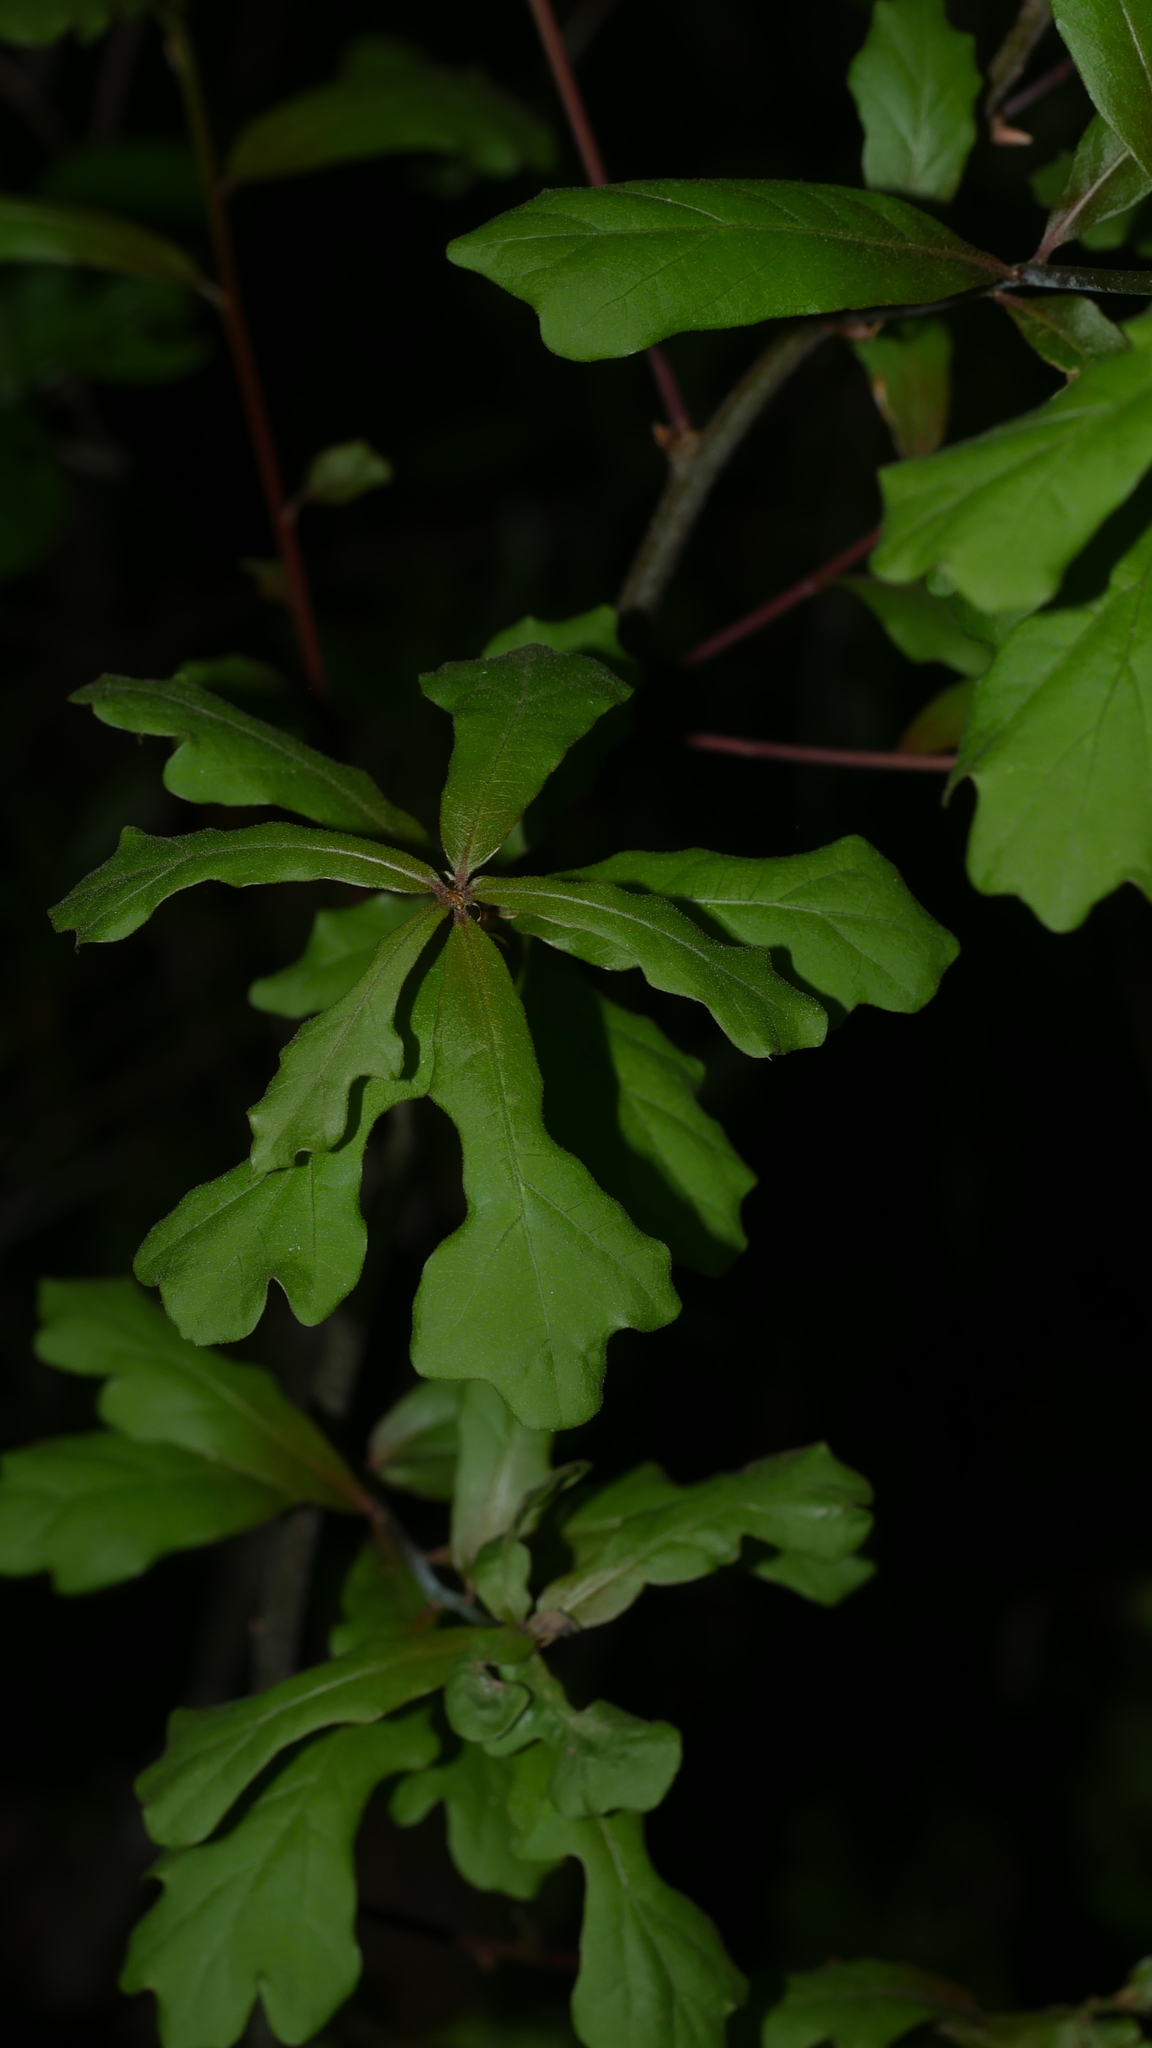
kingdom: Plantae
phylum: Tracheophyta
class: Magnoliopsida
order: Fagales
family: Fagaceae
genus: Quercus
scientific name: Quercus nigra
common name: Water oak
